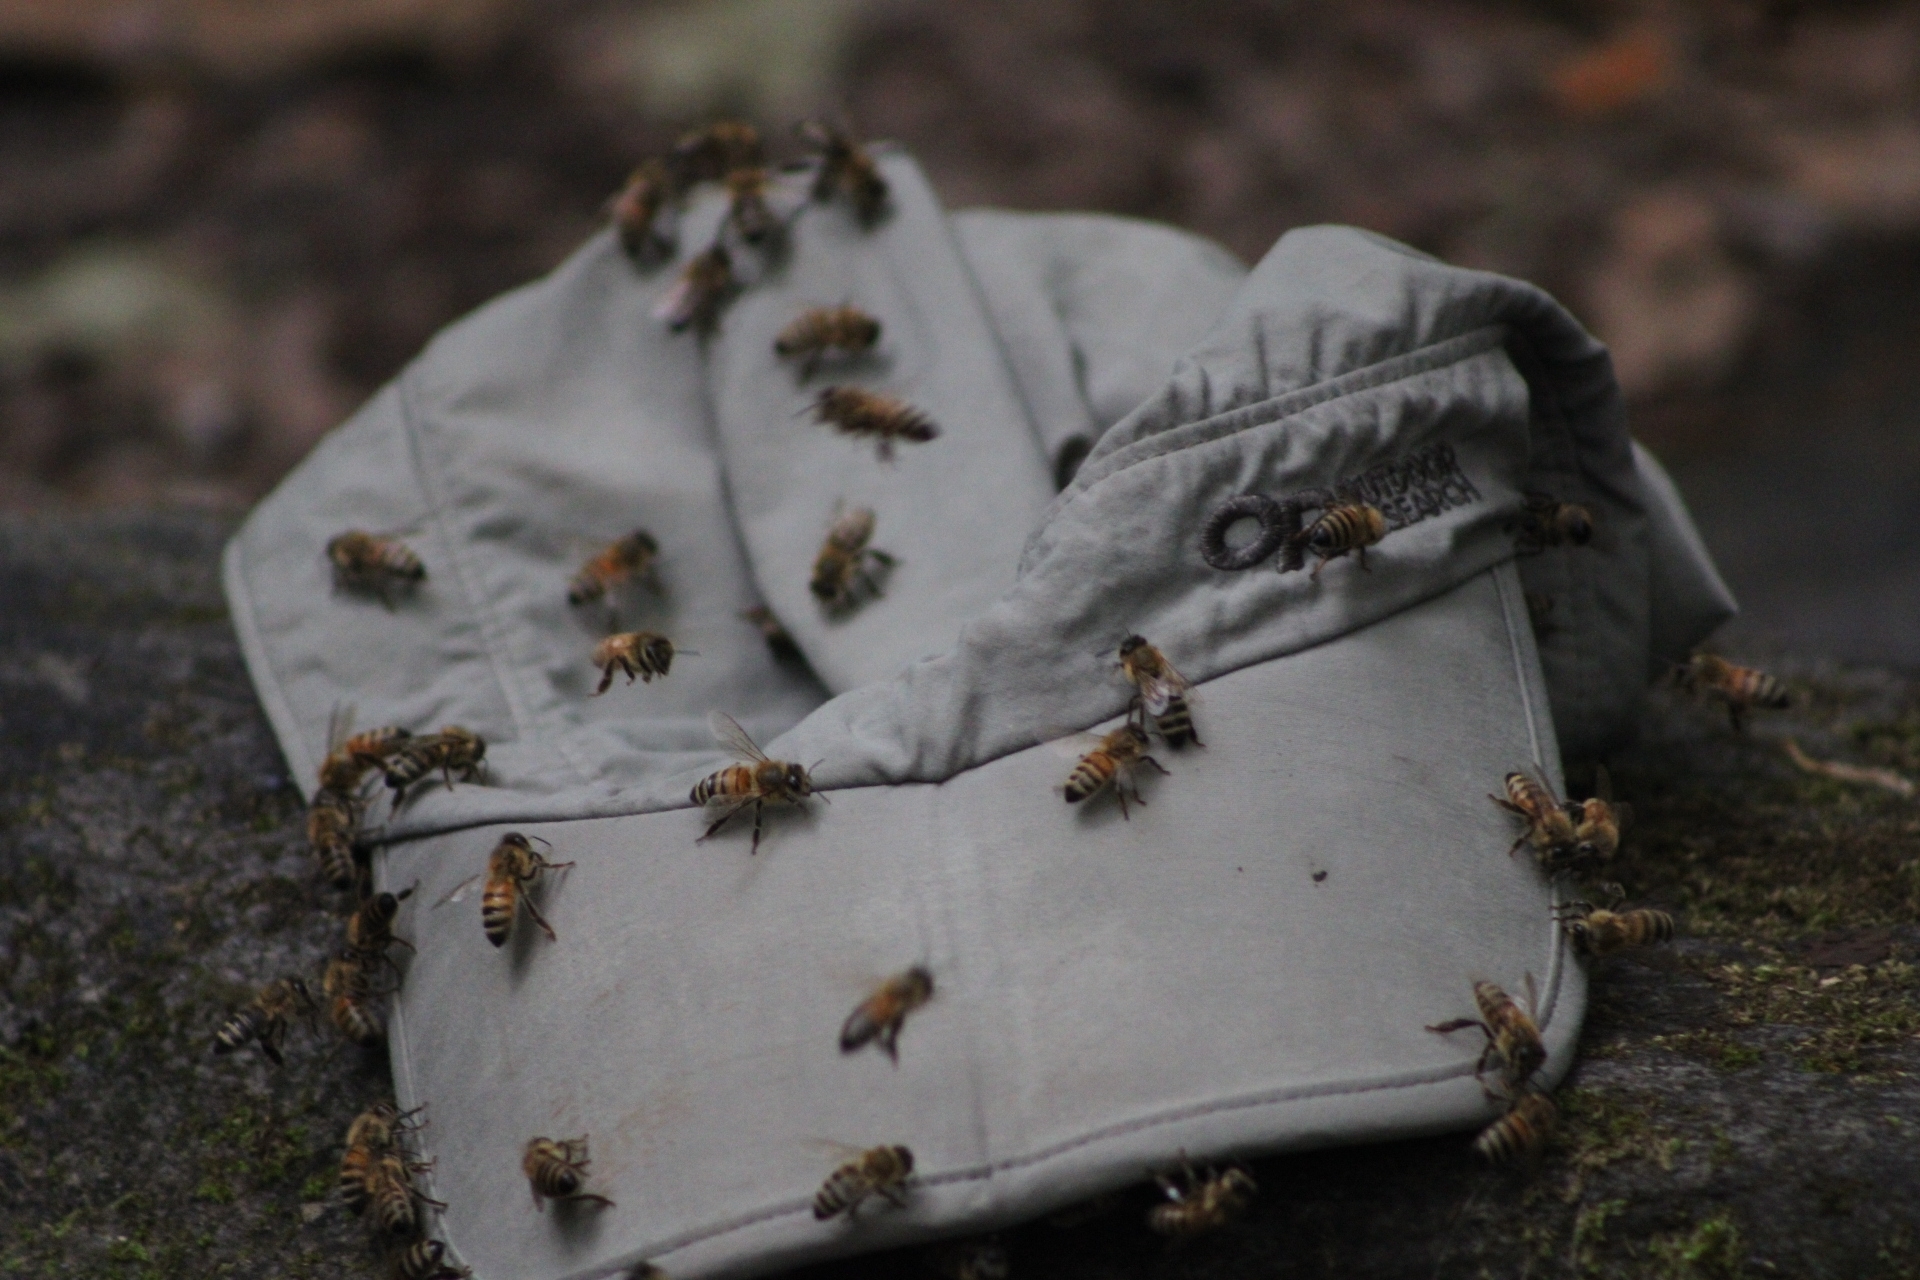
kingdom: Animalia
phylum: Arthropoda
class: Insecta
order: Hymenoptera
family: Apidae
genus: Apis
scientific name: Apis mellifera
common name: Honey bee
